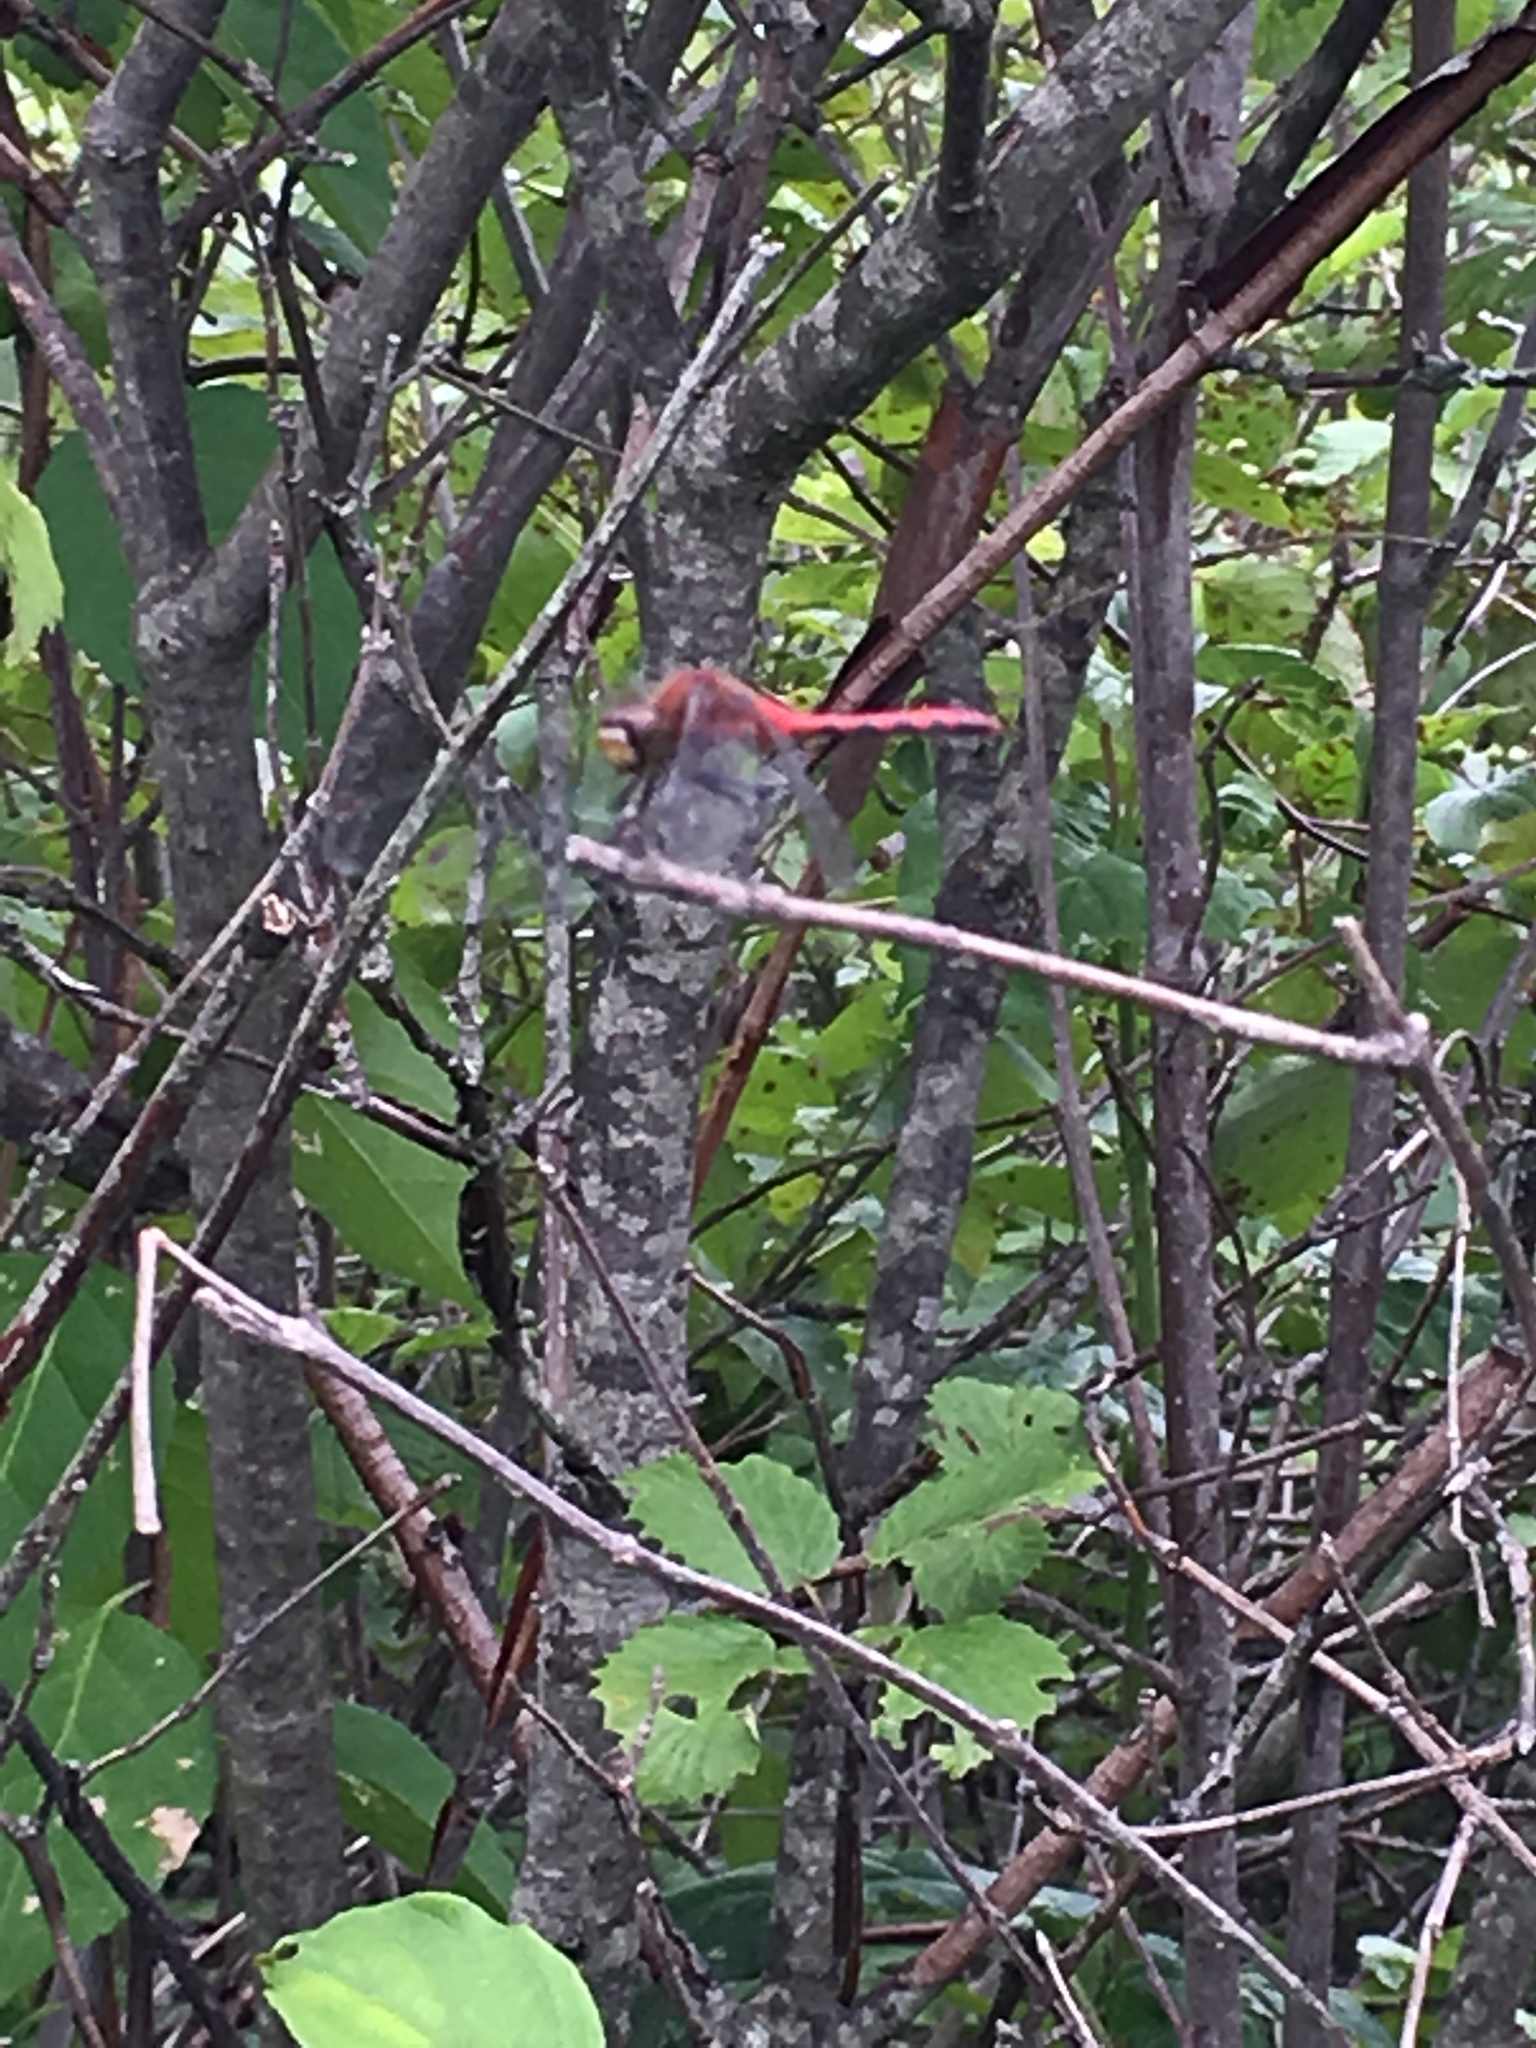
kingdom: Animalia
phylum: Arthropoda
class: Insecta
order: Odonata
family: Libellulidae
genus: Sympetrum
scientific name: Sympetrum
